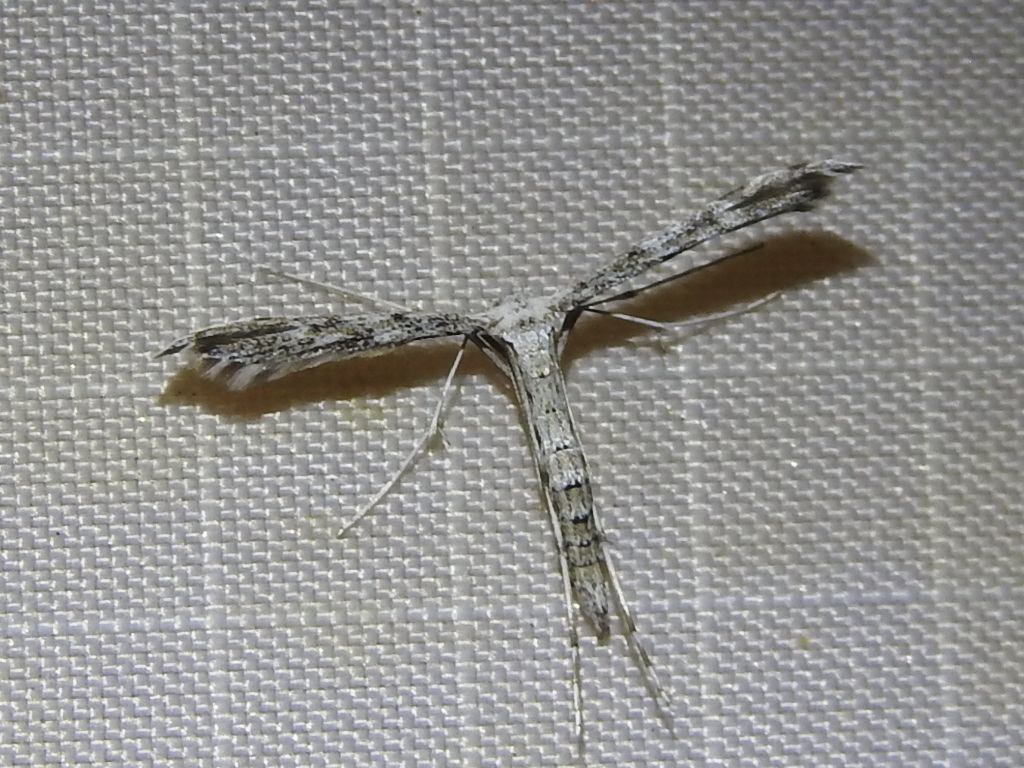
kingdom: Animalia
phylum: Arthropoda
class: Insecta
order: Lepidoptera
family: Pterophoridae
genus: Hellinsia
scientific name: Hellinsia inquinatus
